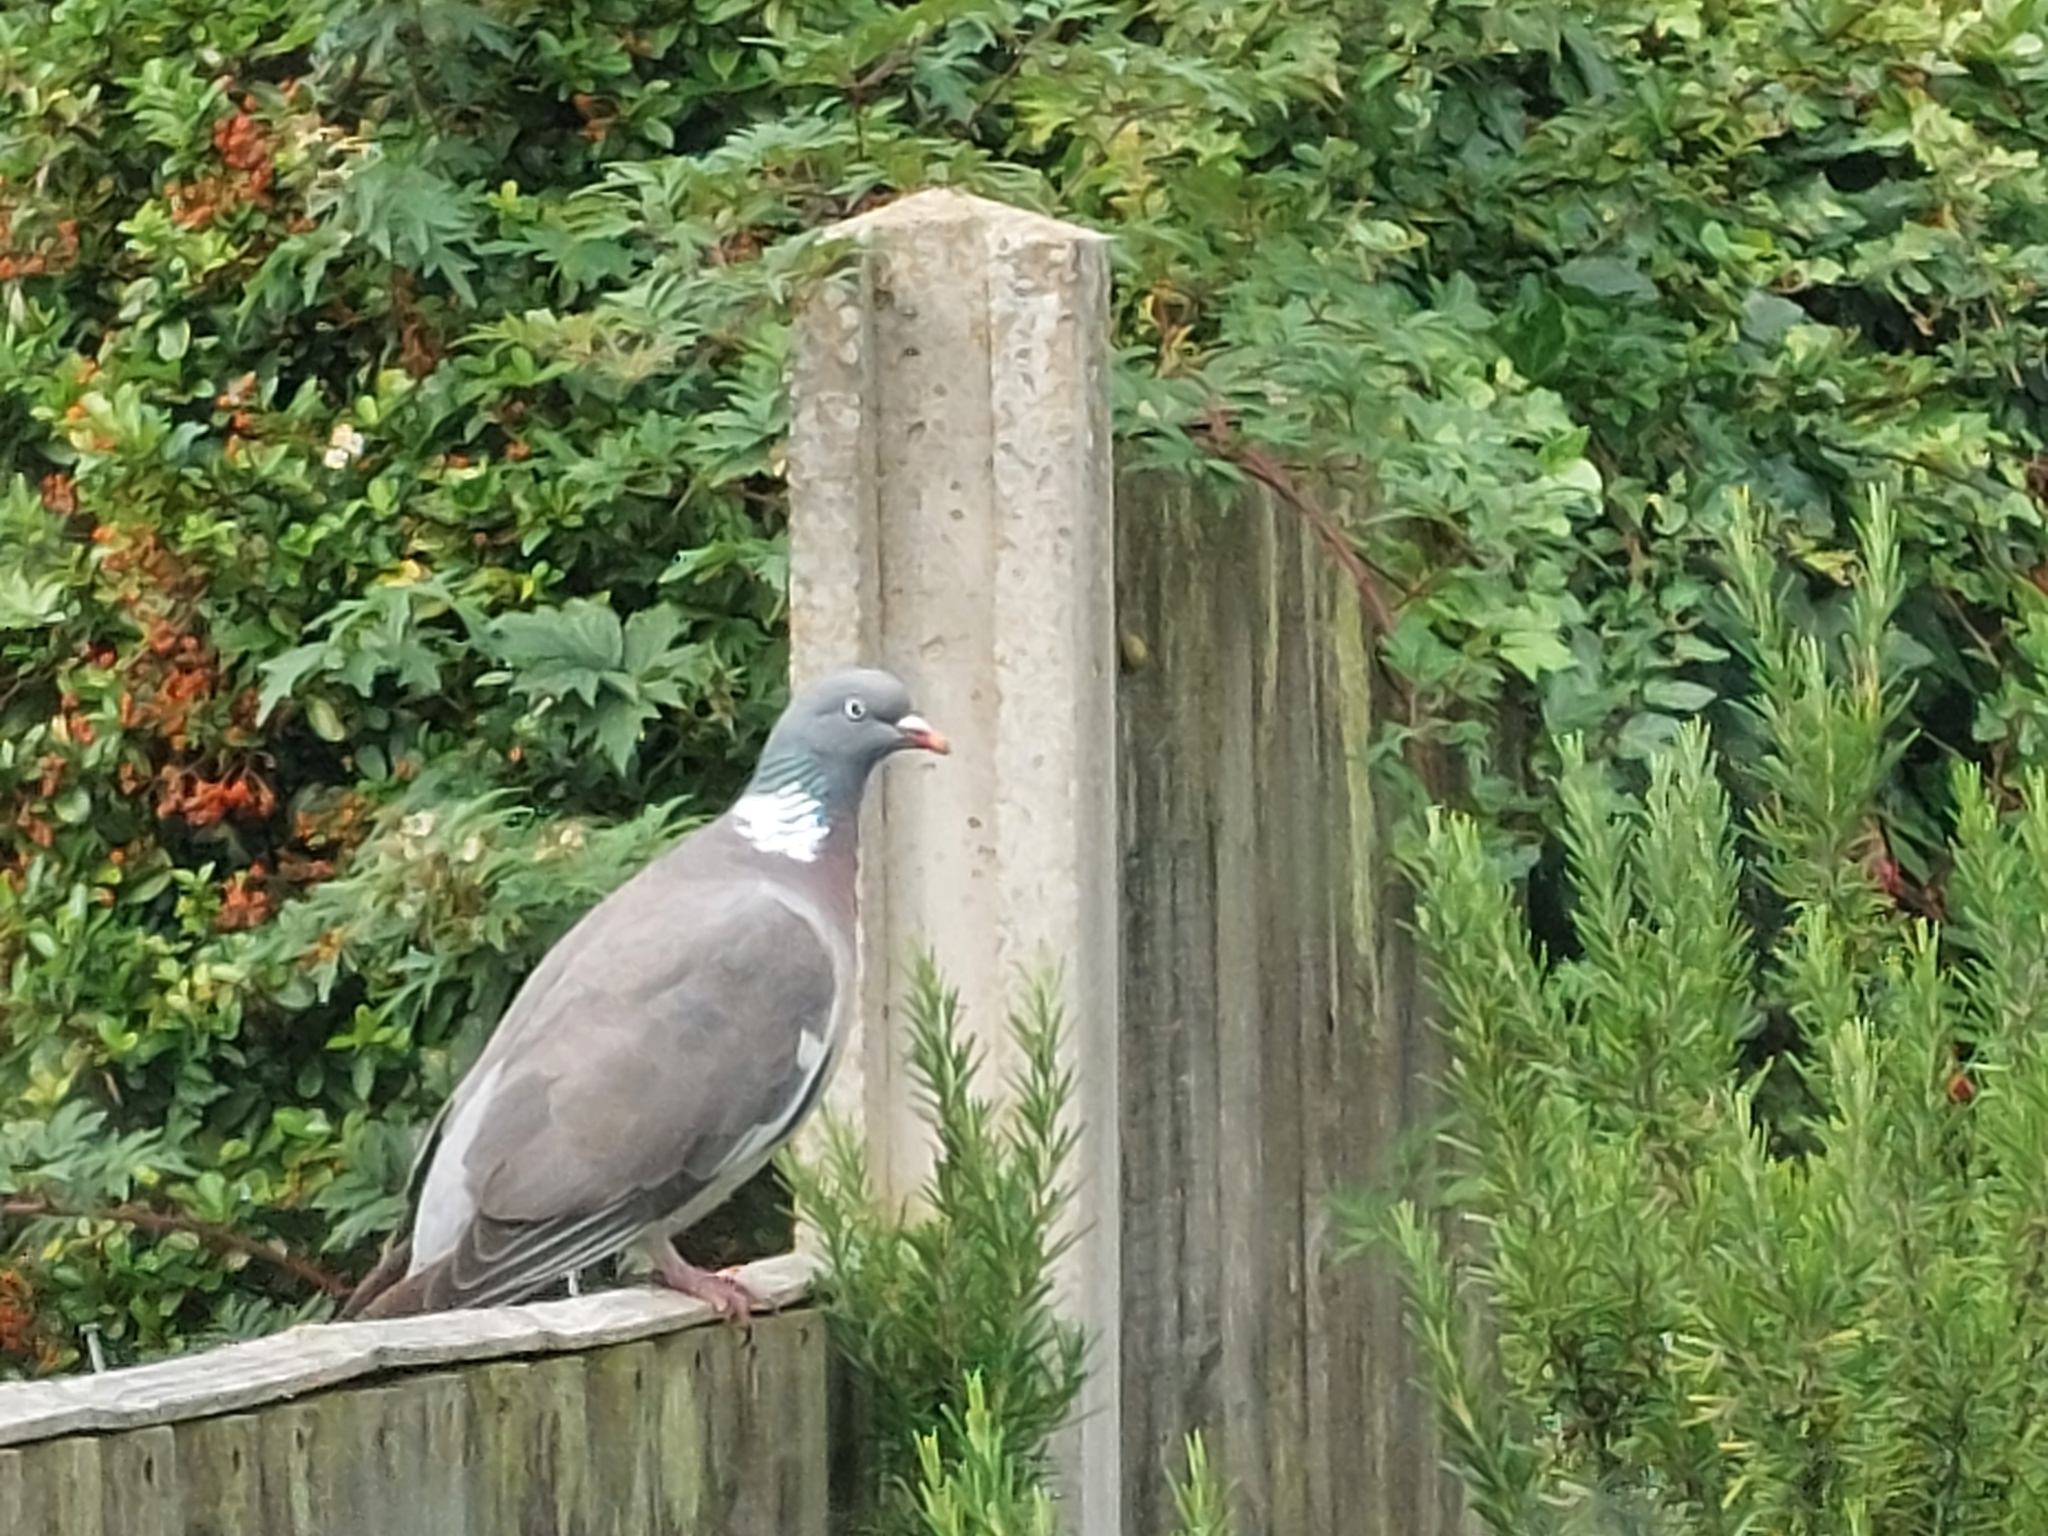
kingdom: Animalia
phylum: Chordata
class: Aves
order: Columbiformes
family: Columbidae
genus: Columba
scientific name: Columba palumbus
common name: Common wood pigeon
